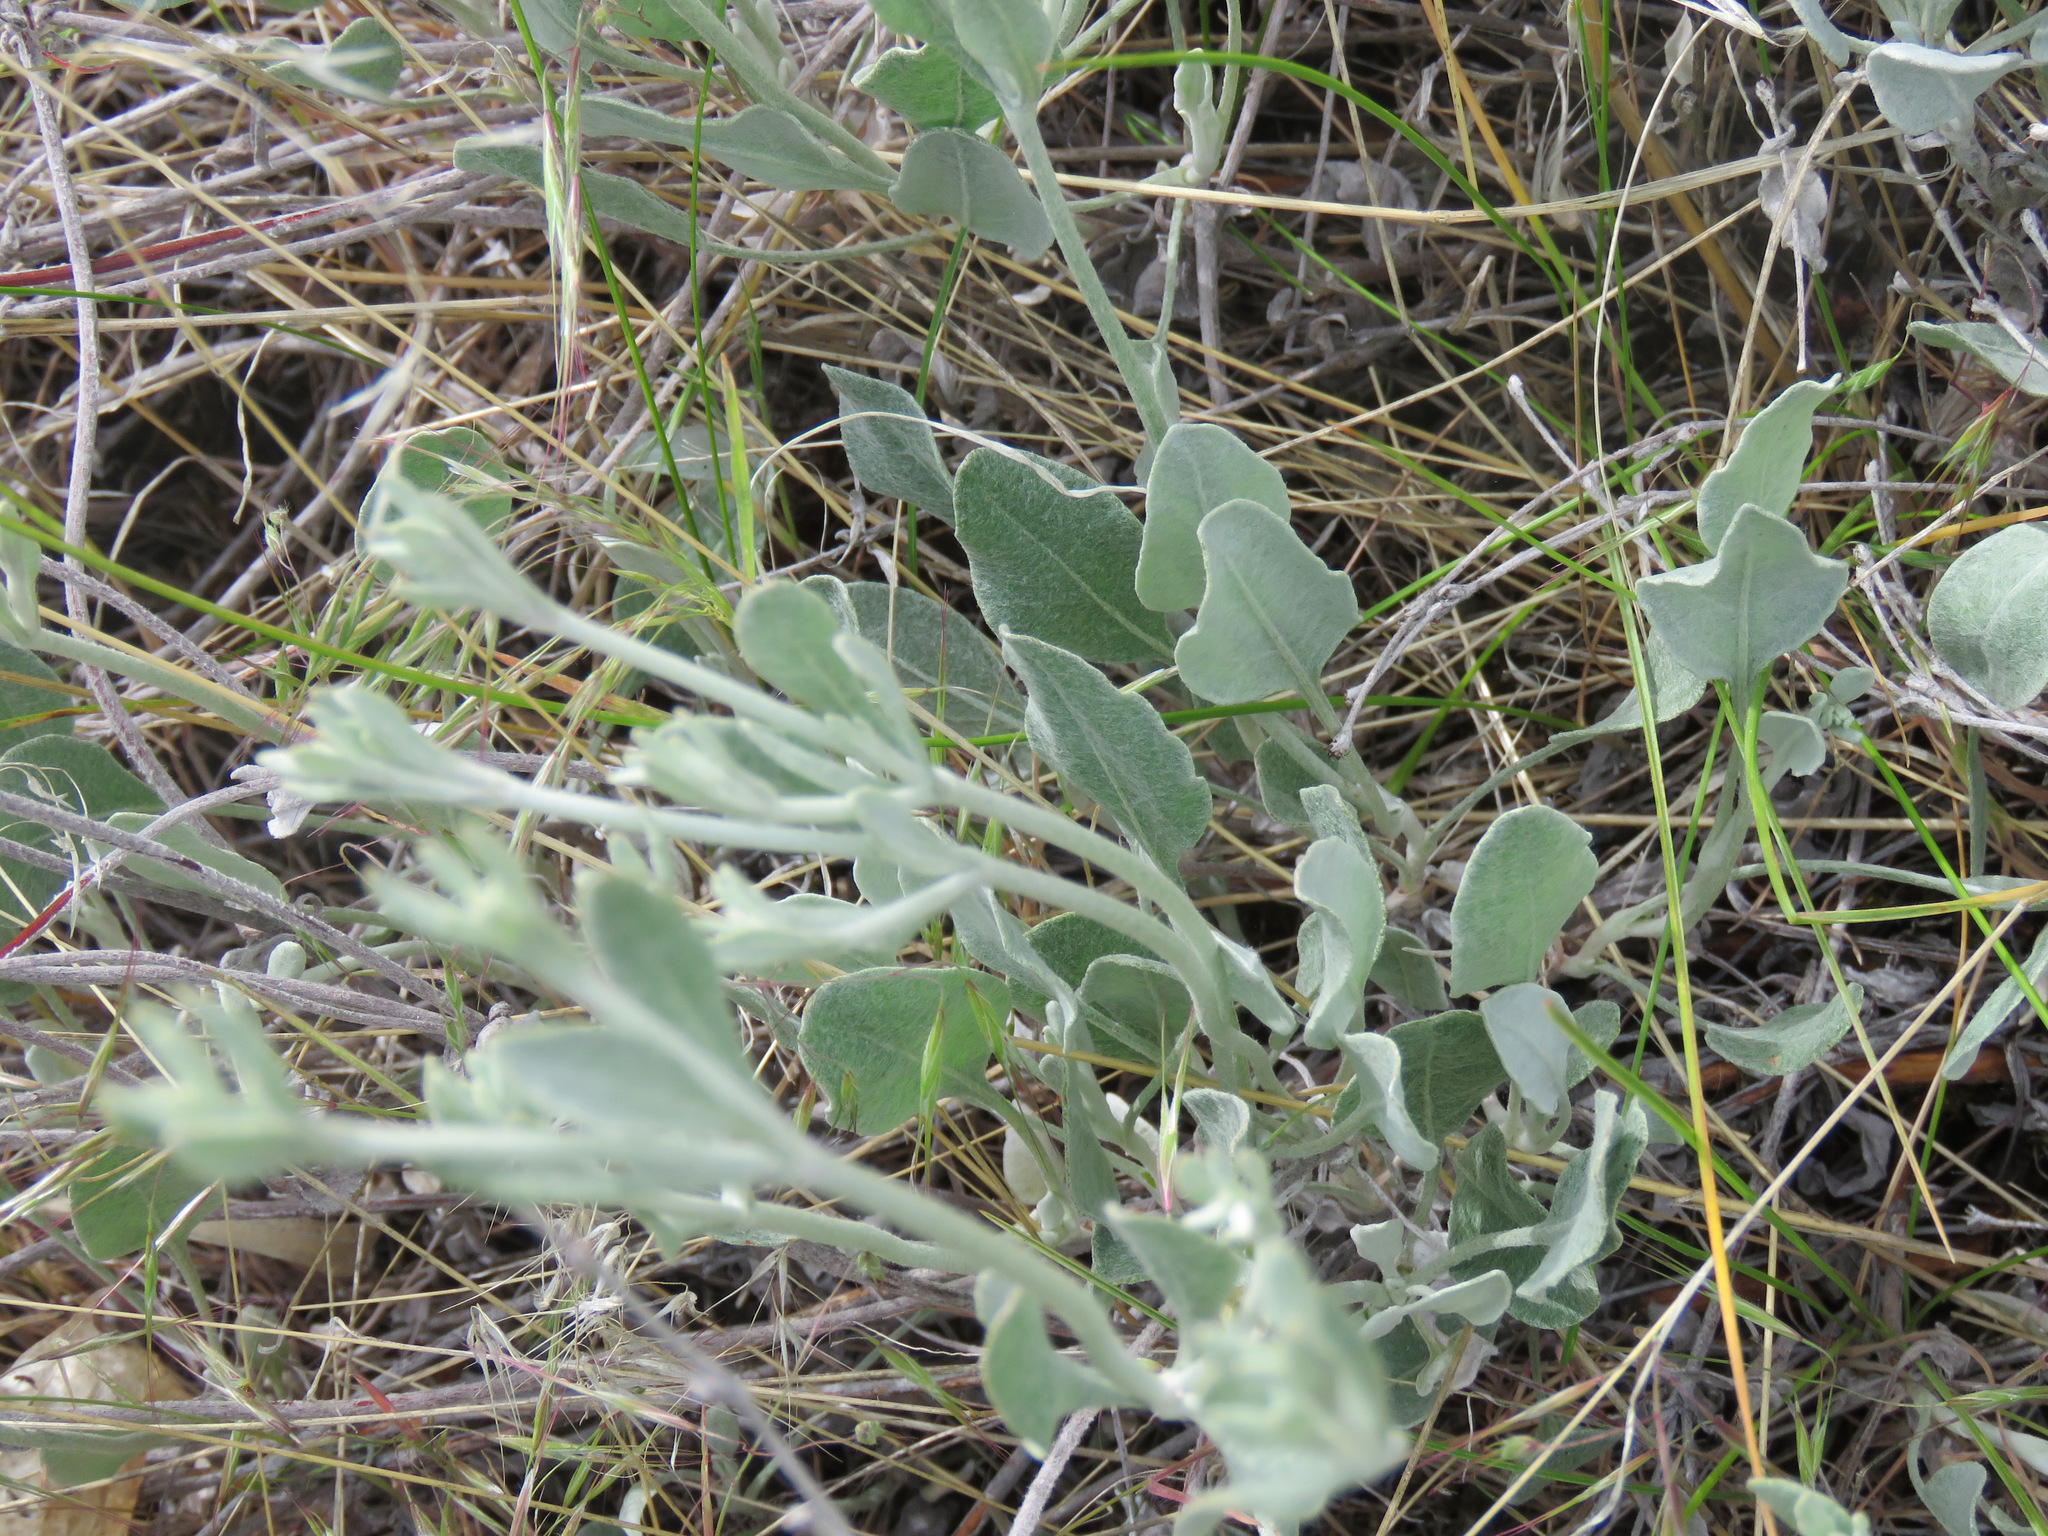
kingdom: Plantae
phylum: Tracheophyta
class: Magnoliopsida
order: Caryophyllales
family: Polygonaceae
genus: Eriogonum
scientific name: Eriogonum niveum
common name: Snow wild buckwheat
